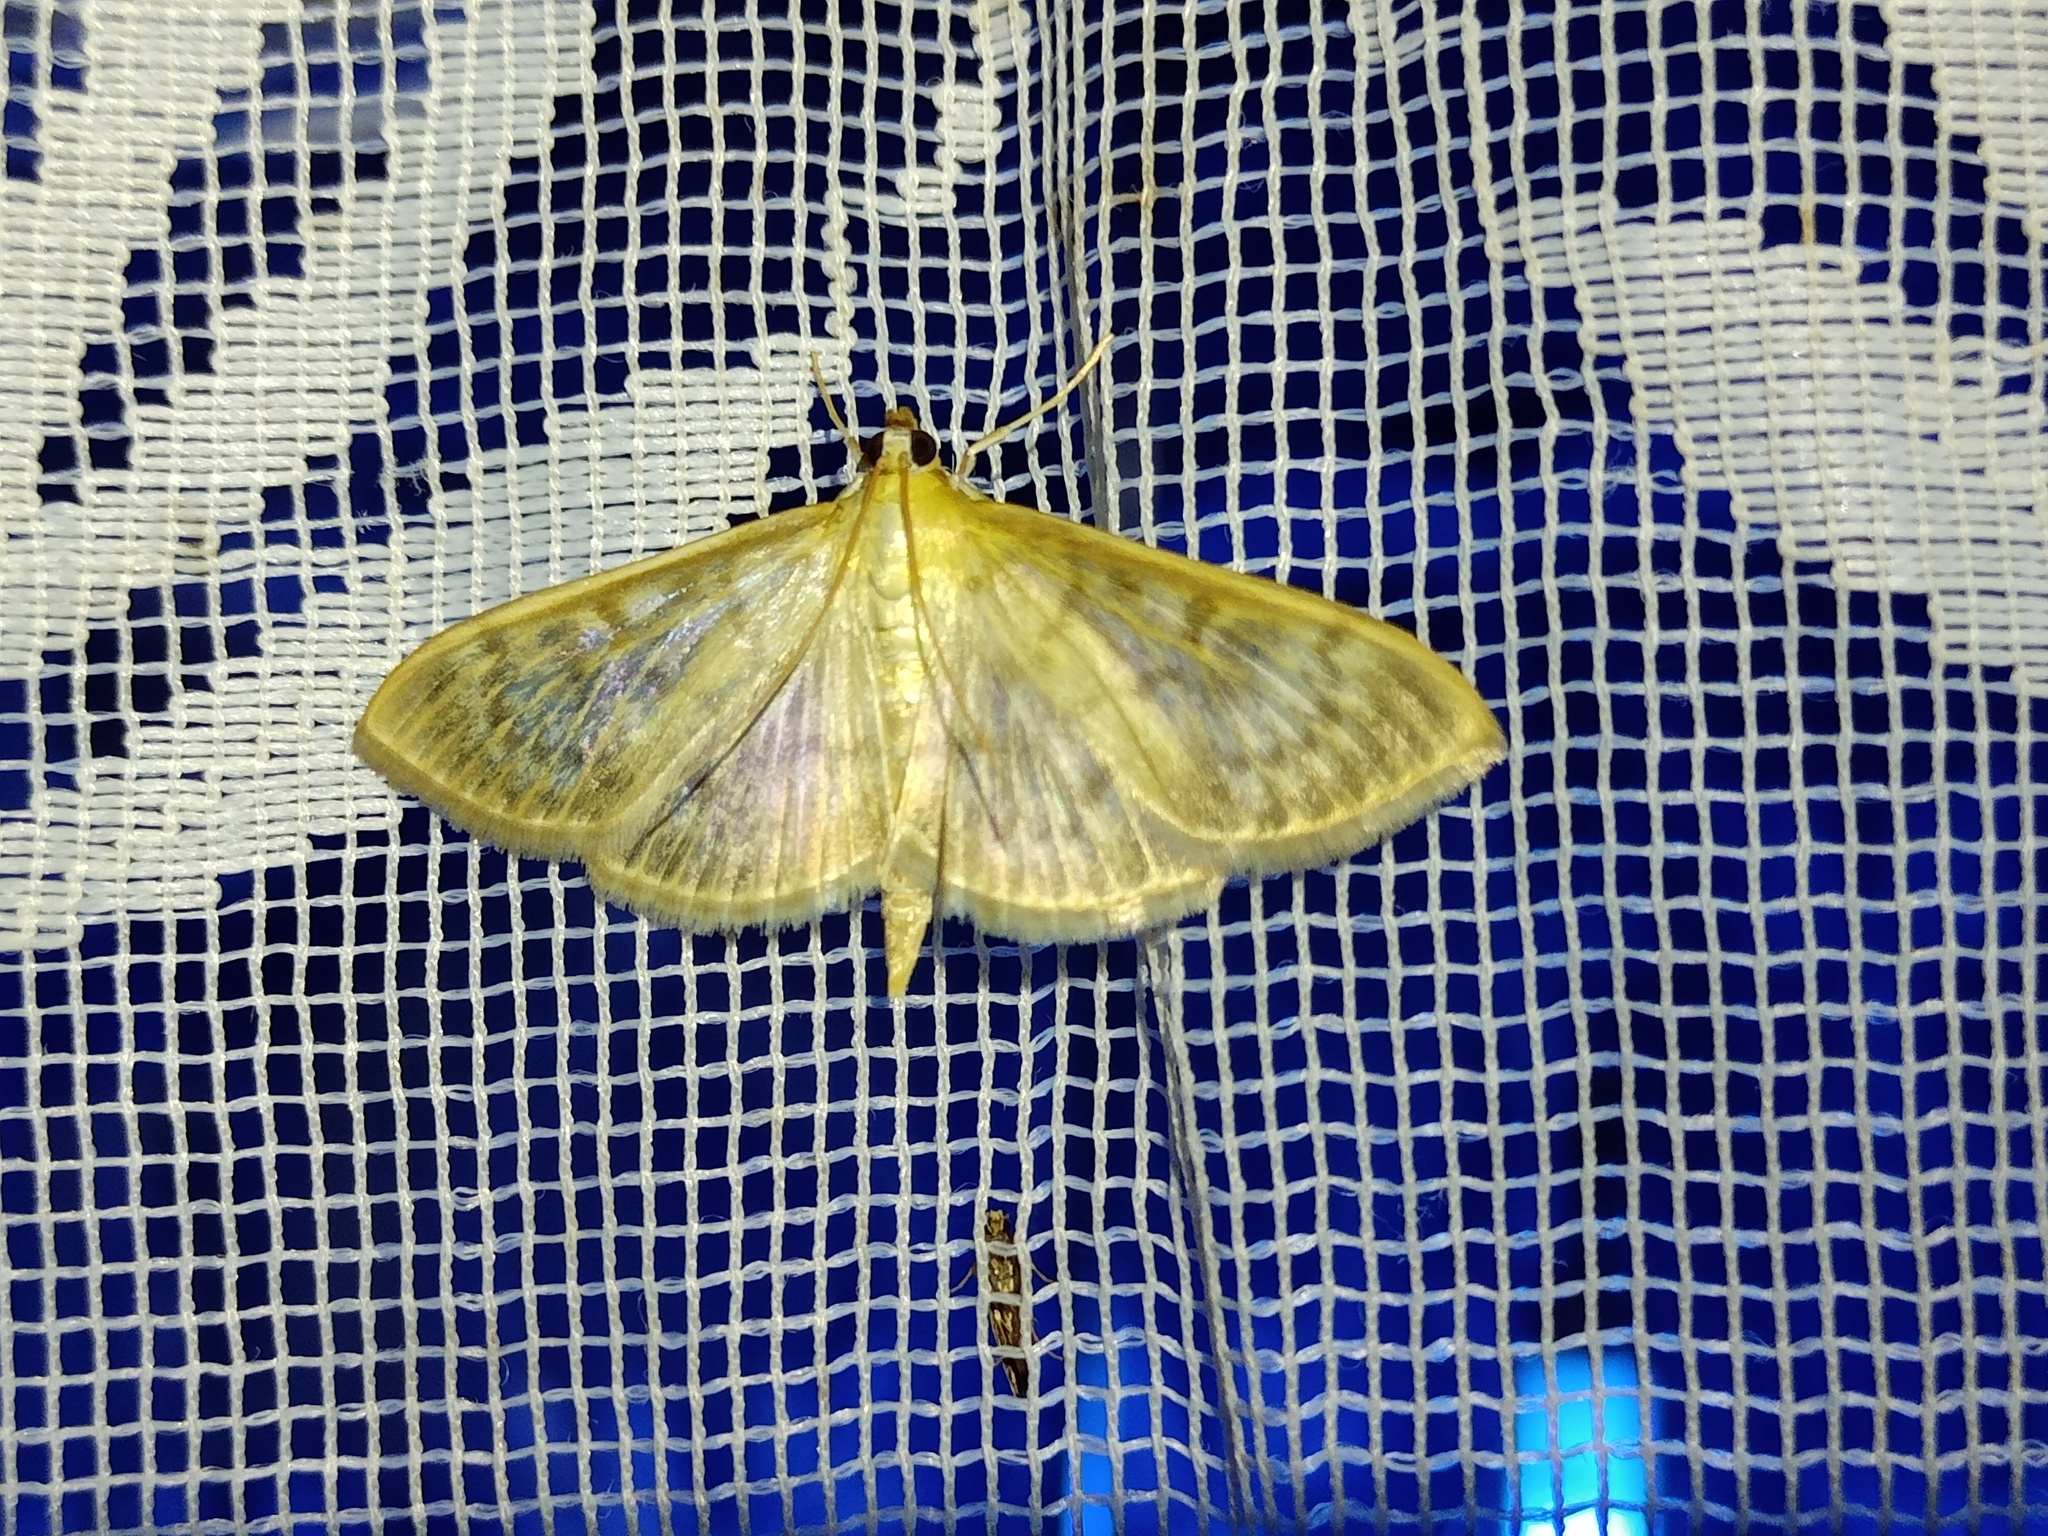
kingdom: Animalia
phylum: Arthropoda
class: Insecta
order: Lepidoptera
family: Crambidae
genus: Patania
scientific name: Patania ruralis
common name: Mother of pearl
